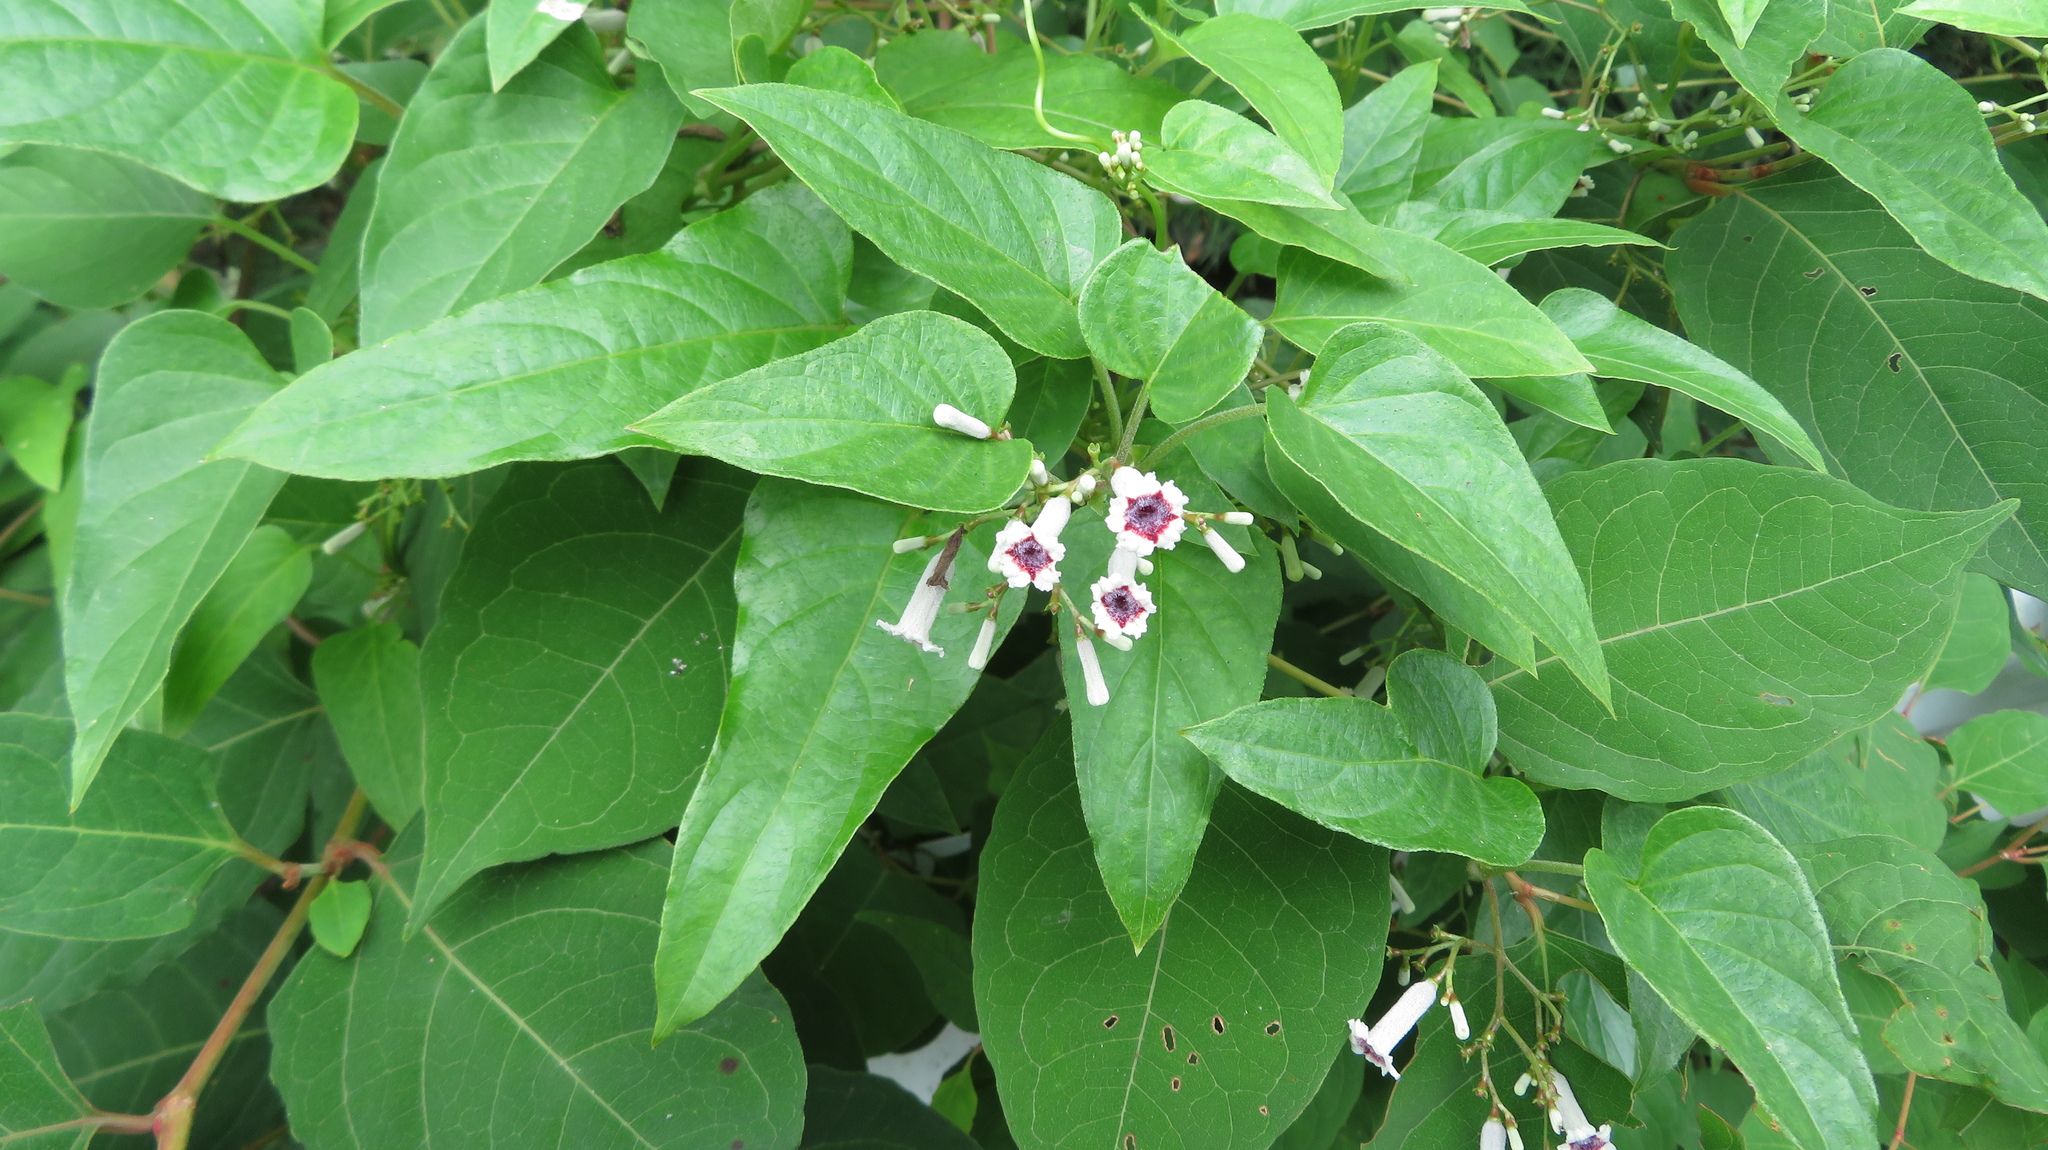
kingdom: Plantae
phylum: Tracheophyta
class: Magnoliopsida
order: Gentianales
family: Rubiaceae
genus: Paederia
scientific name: Paederia foetida
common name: Stinkvine
